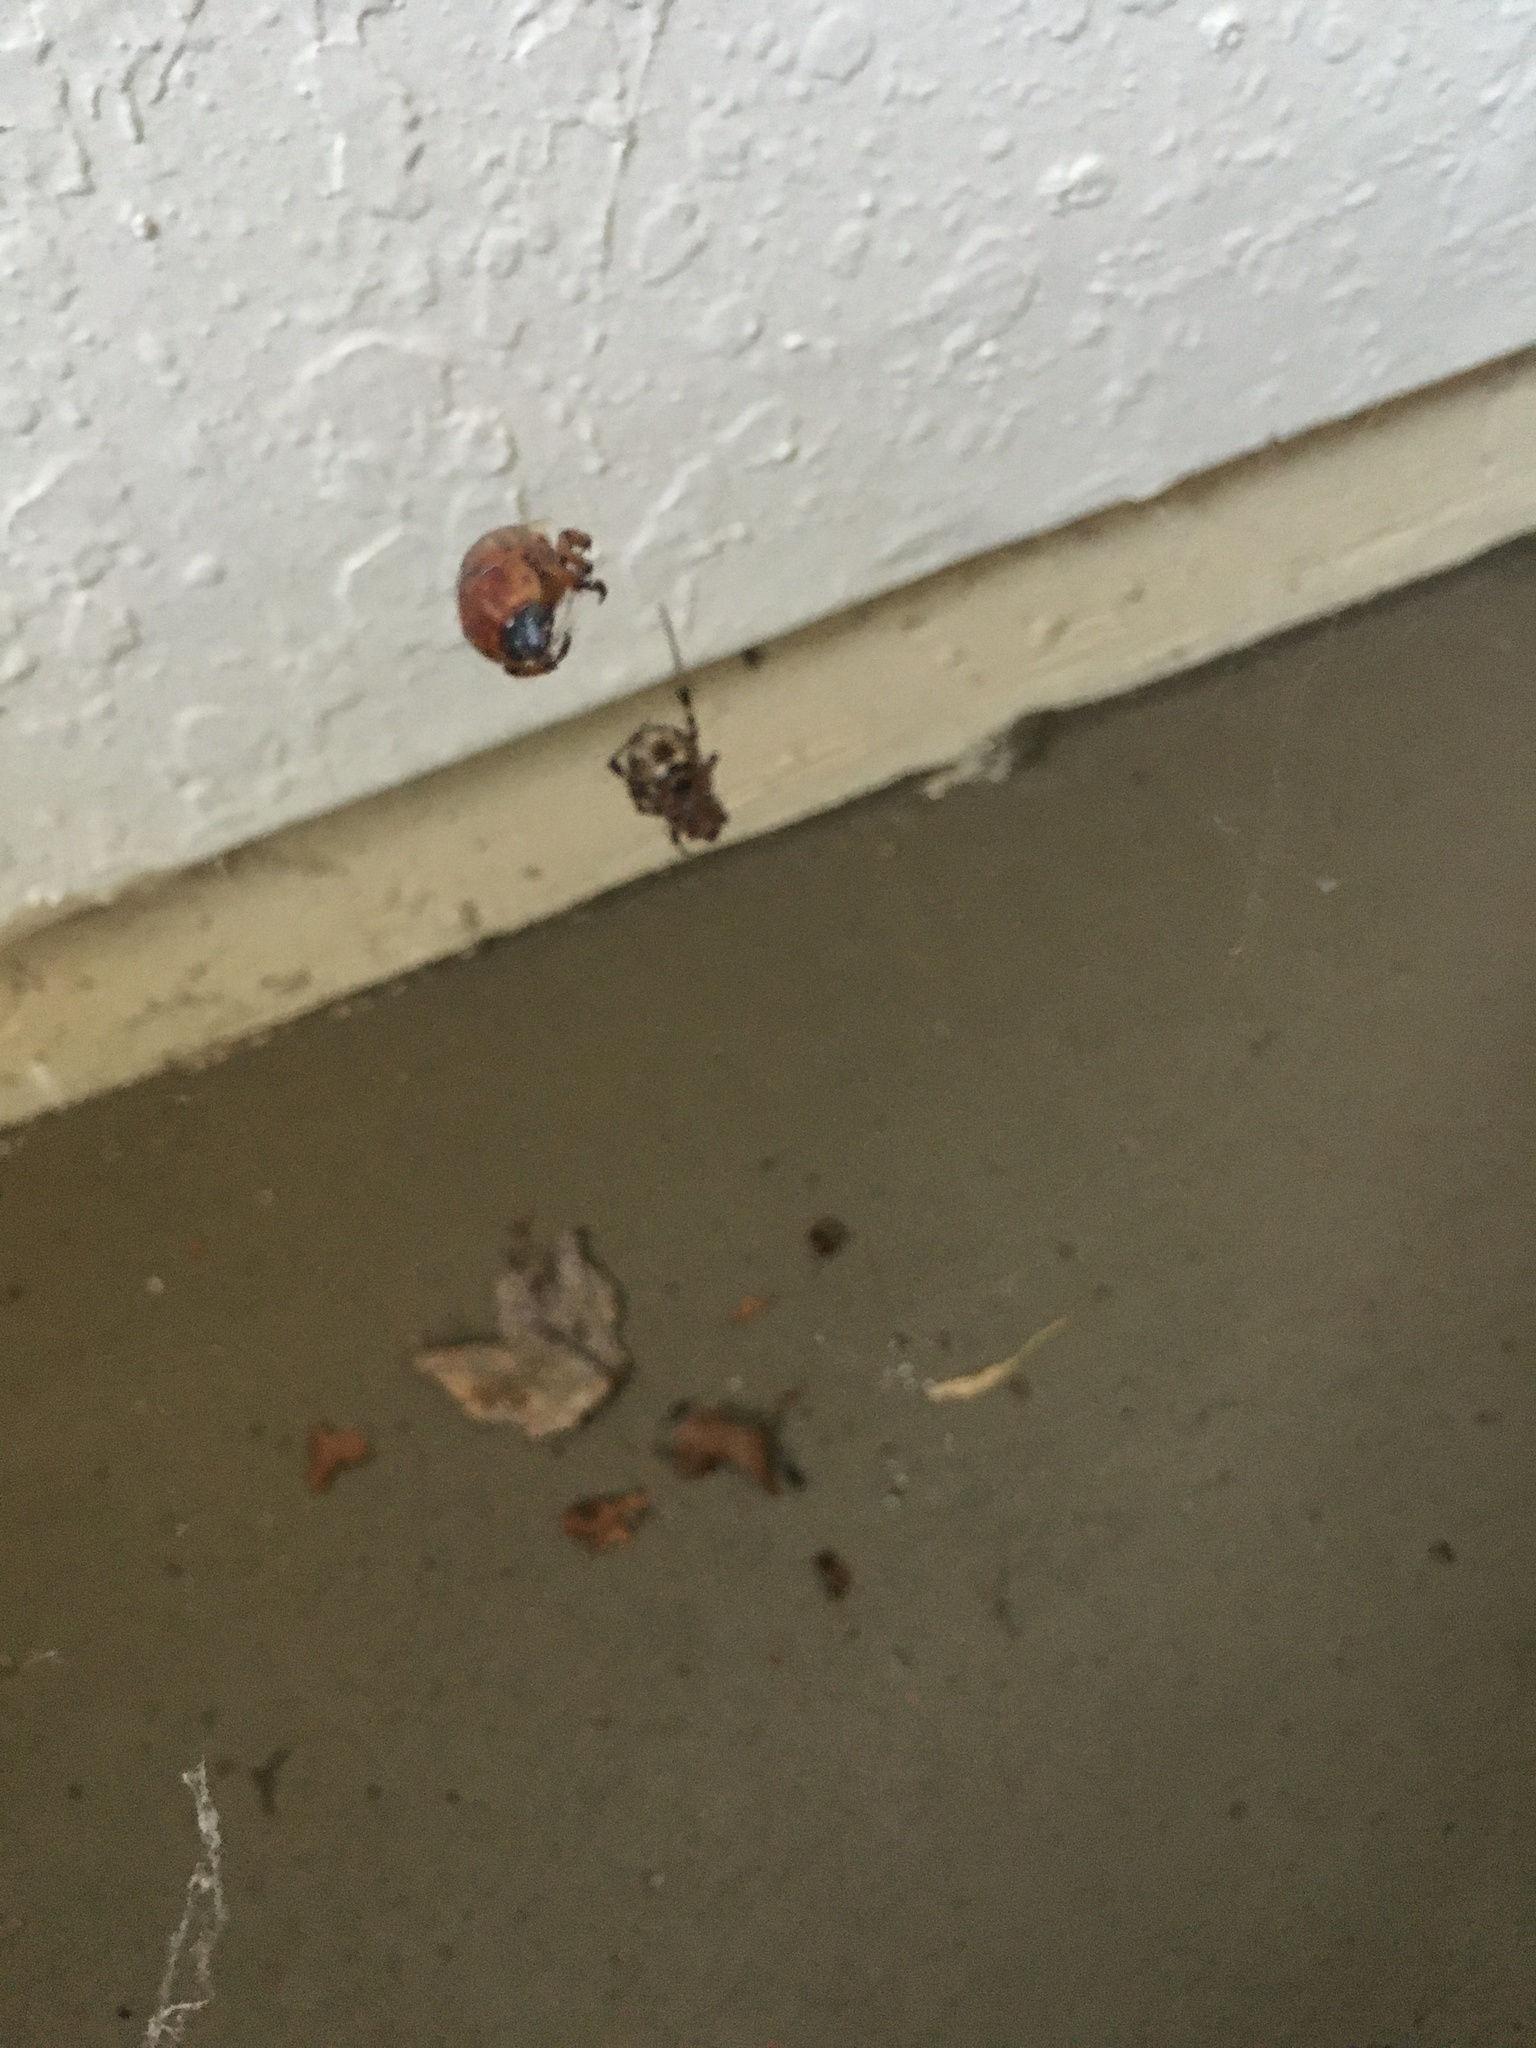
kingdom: Animalia
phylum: Arthropoda
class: Arachnida
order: Araneae
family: Theridiidae
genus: Parasteatoda
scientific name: Parasteatoda tepidariorum
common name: Common house spider
